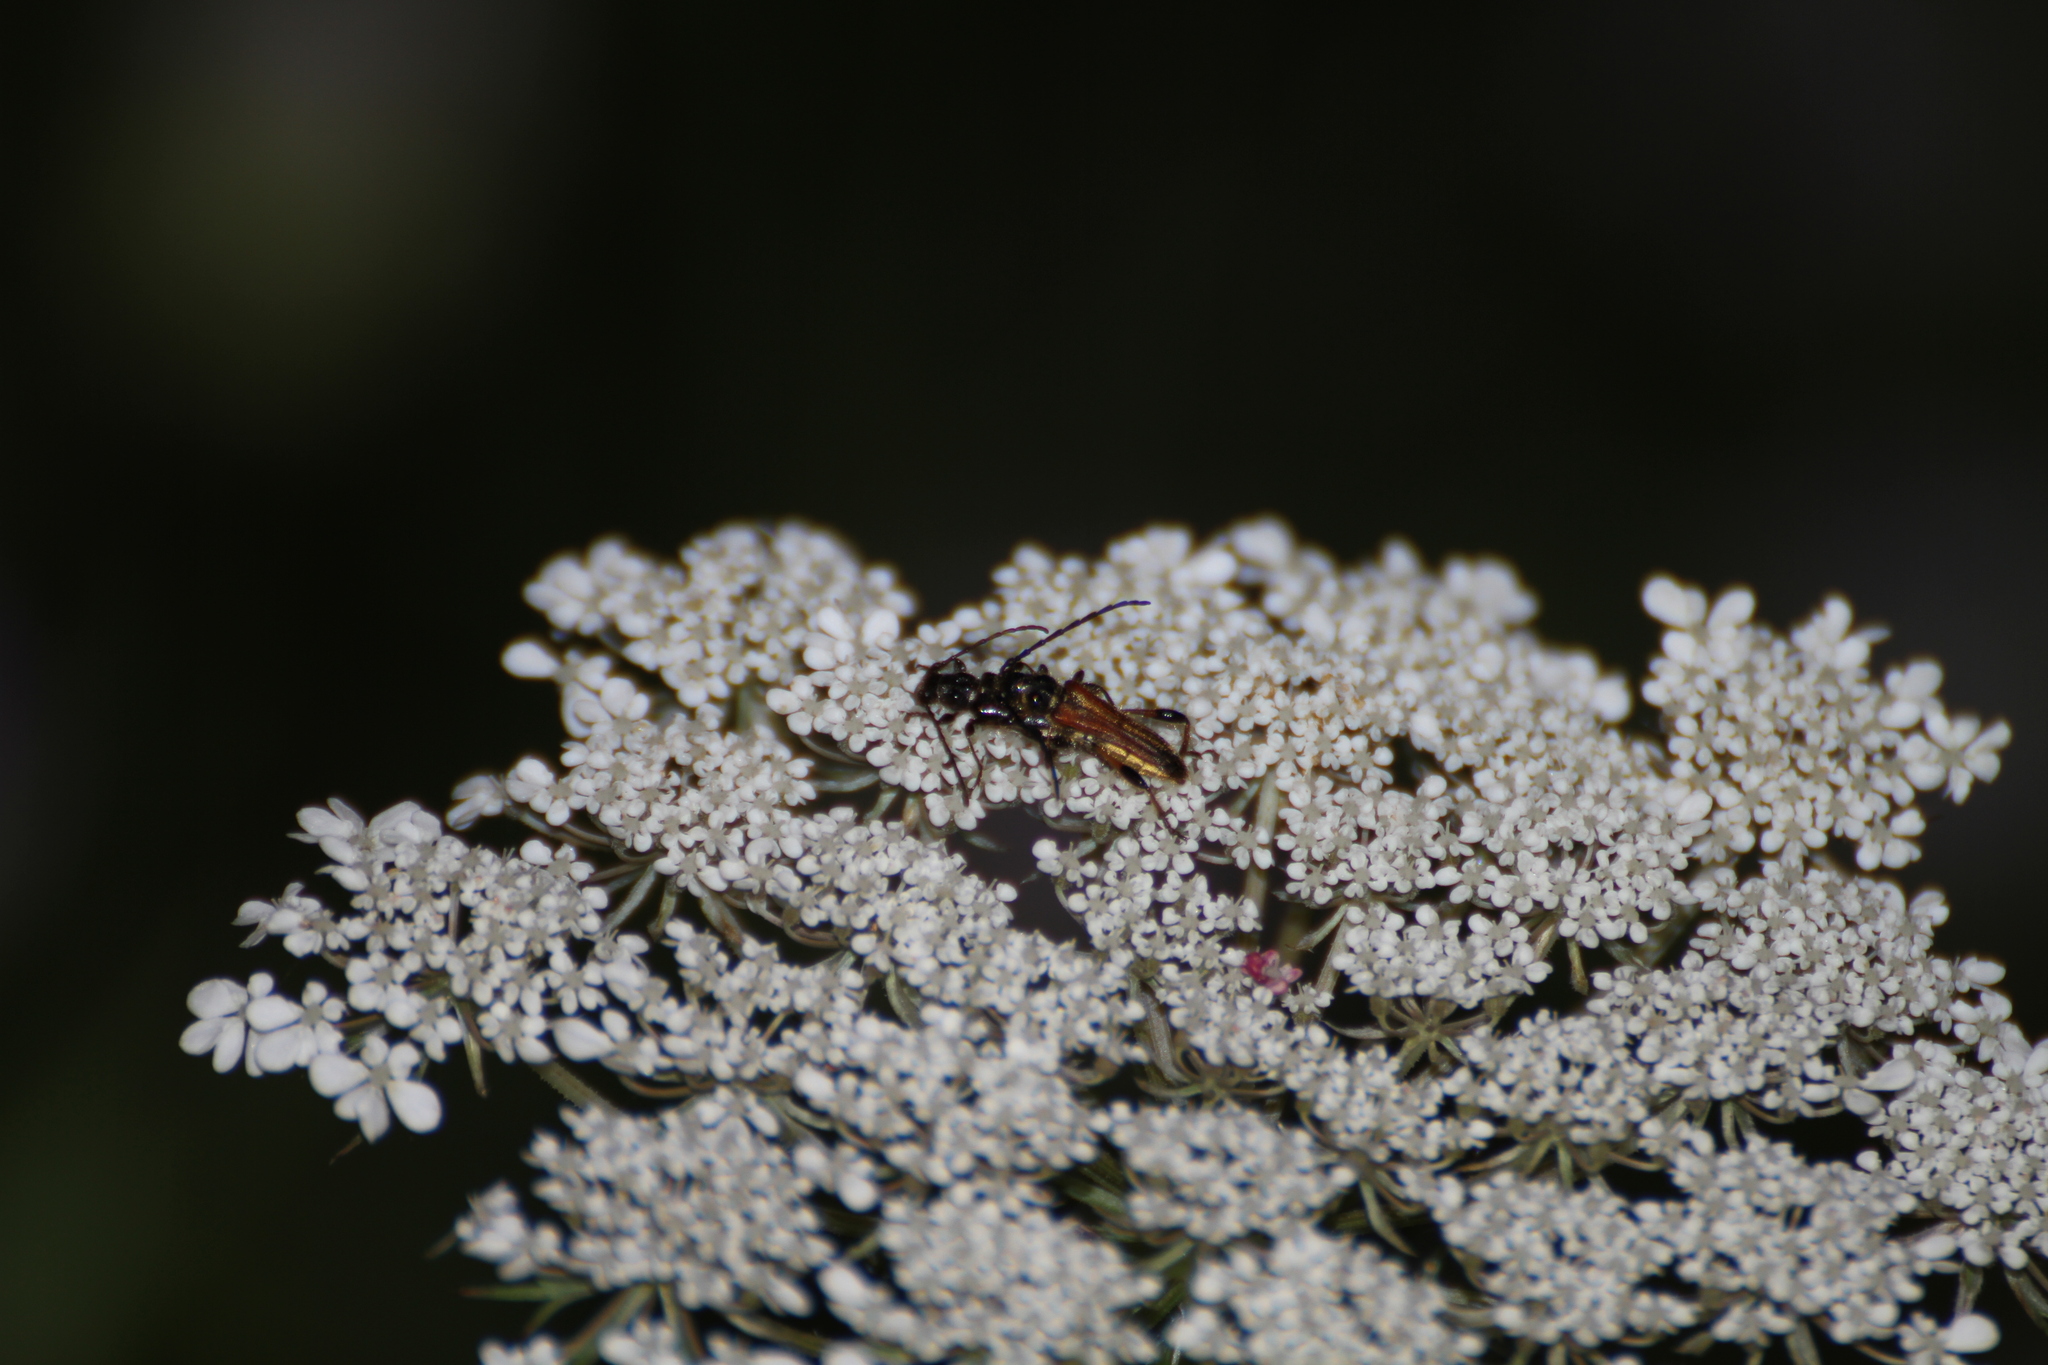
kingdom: Animalia
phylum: Arthropoda
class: Insecta
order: Coleoptera
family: Cerambycidae
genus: Stenopterus
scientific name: Stenopterus ater
